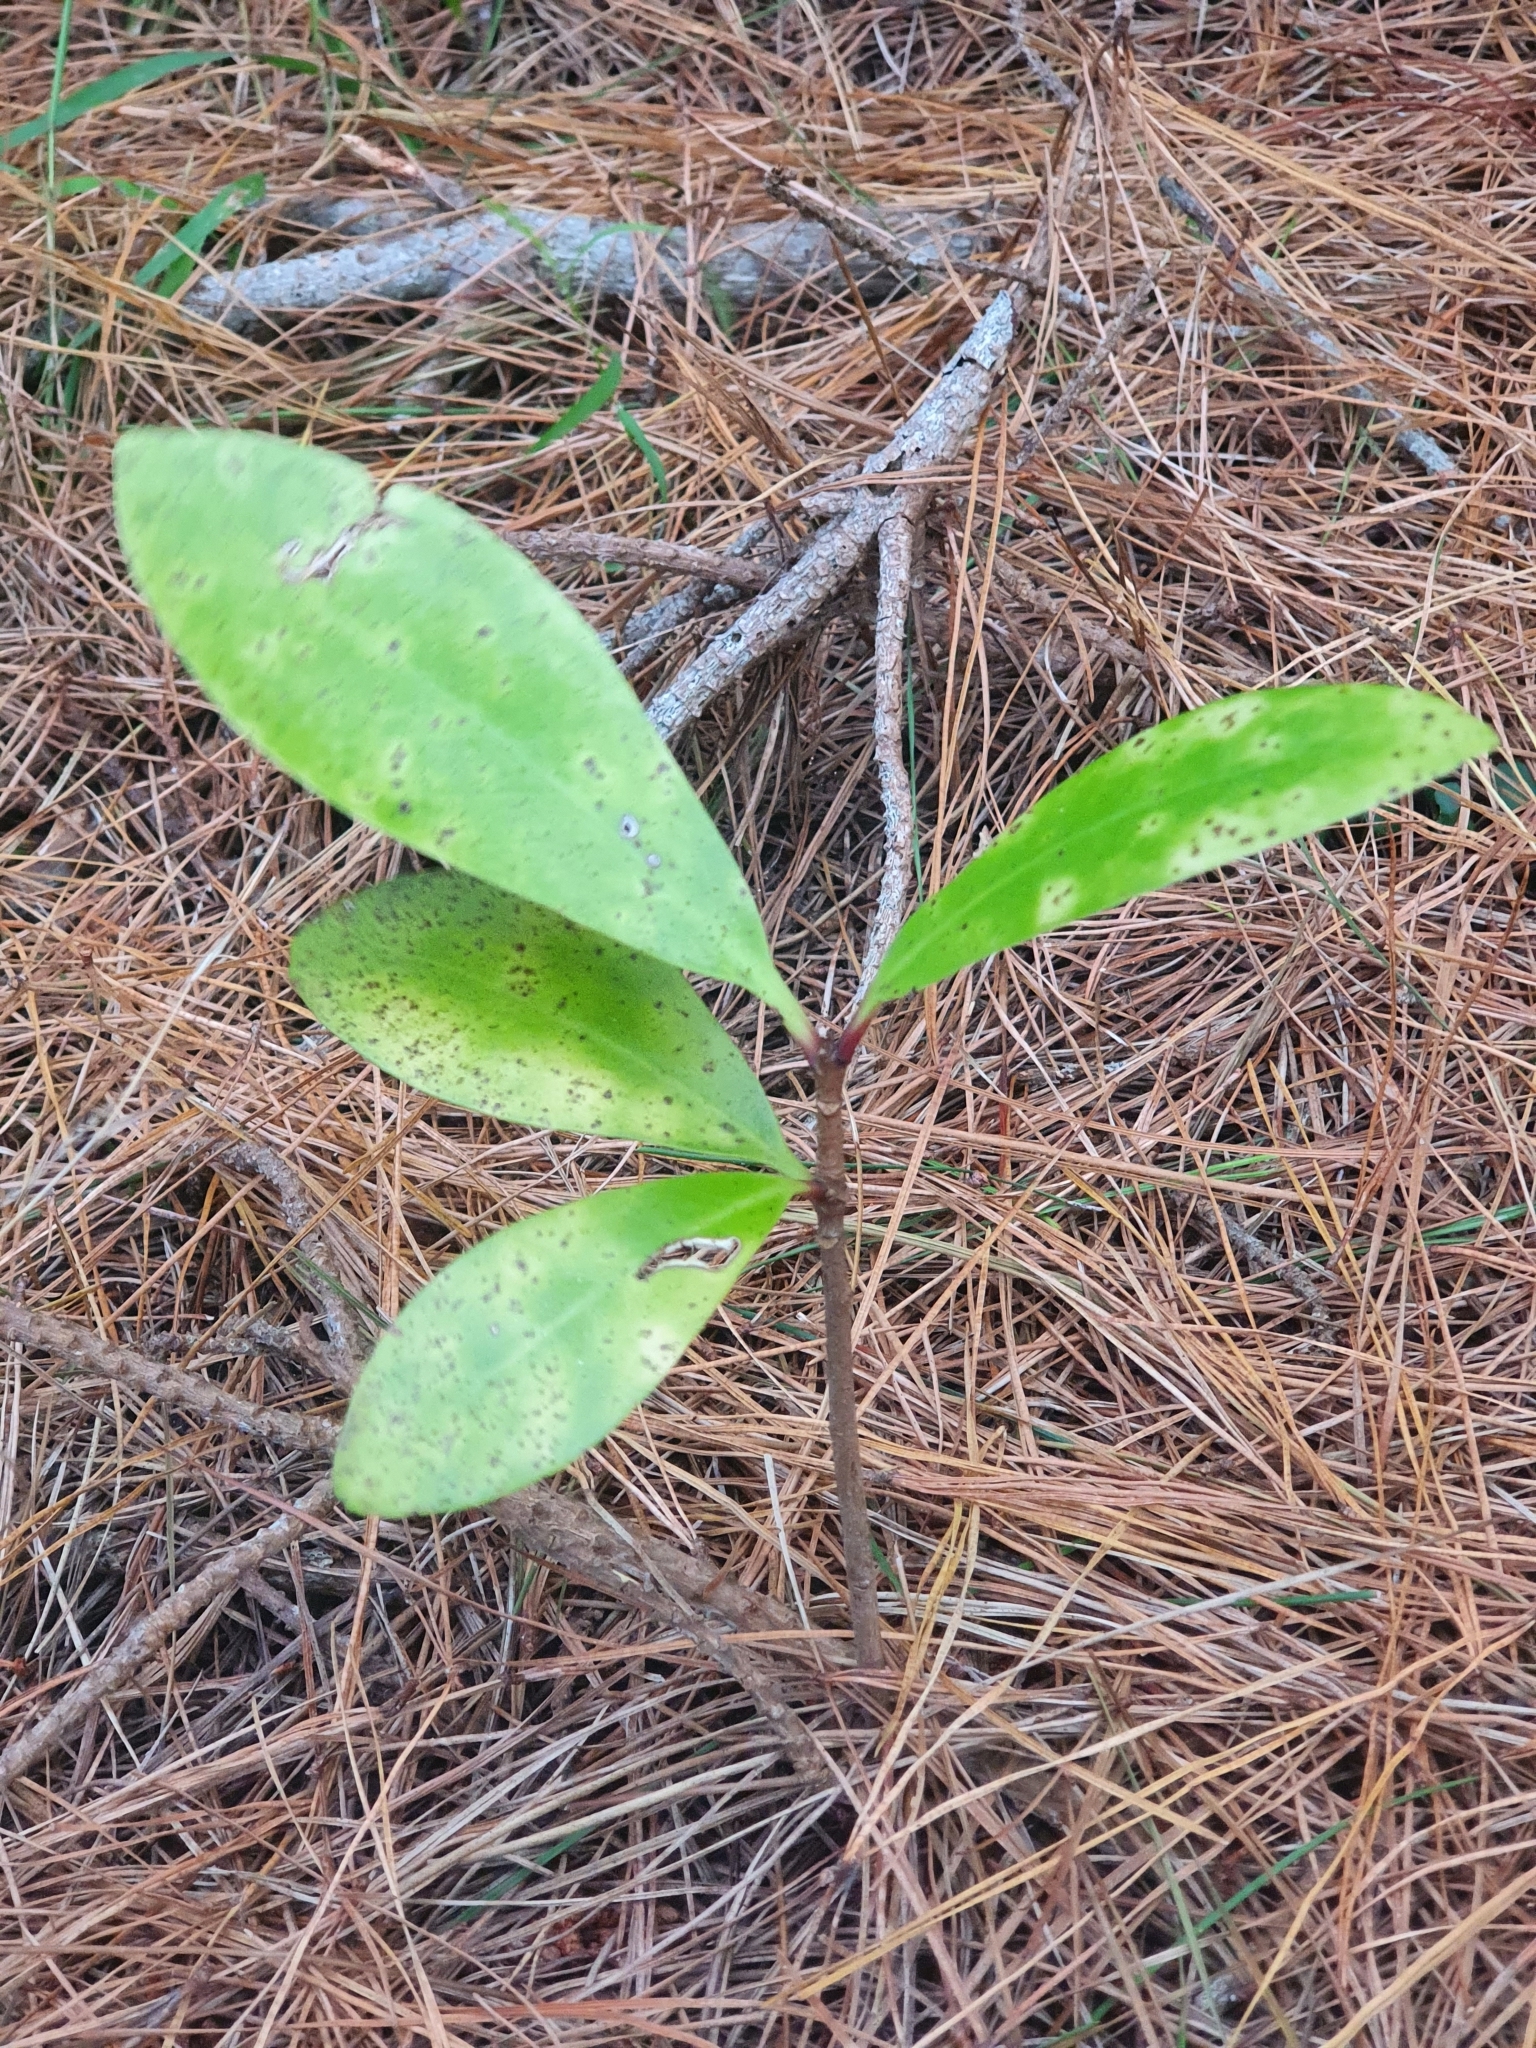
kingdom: Plantae
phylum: Tracheophyta
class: Magnoliopsida
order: Cucurbitales
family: Corynocarpaceae
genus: Corynocarpus
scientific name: Corynocarpus laevigatus
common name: New zealand laurel
